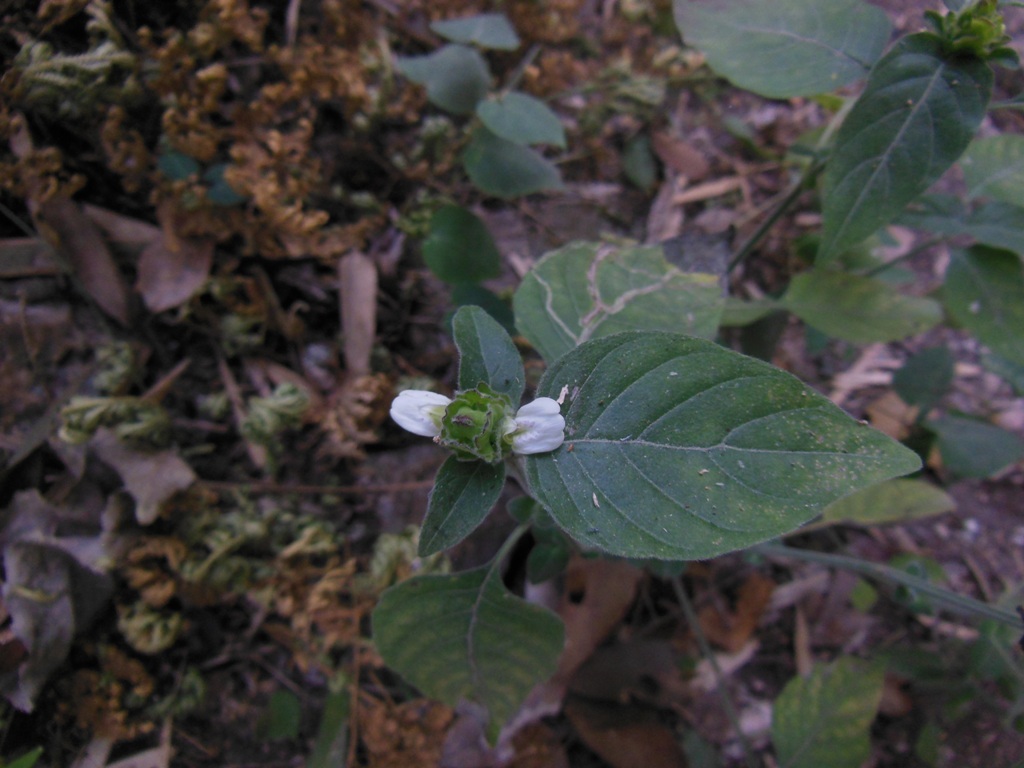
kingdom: Plantae
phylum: Tracheophyta
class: Magnoliopsida
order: Lamiales
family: Acanthaceae
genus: Justicia
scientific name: Justicia maya
